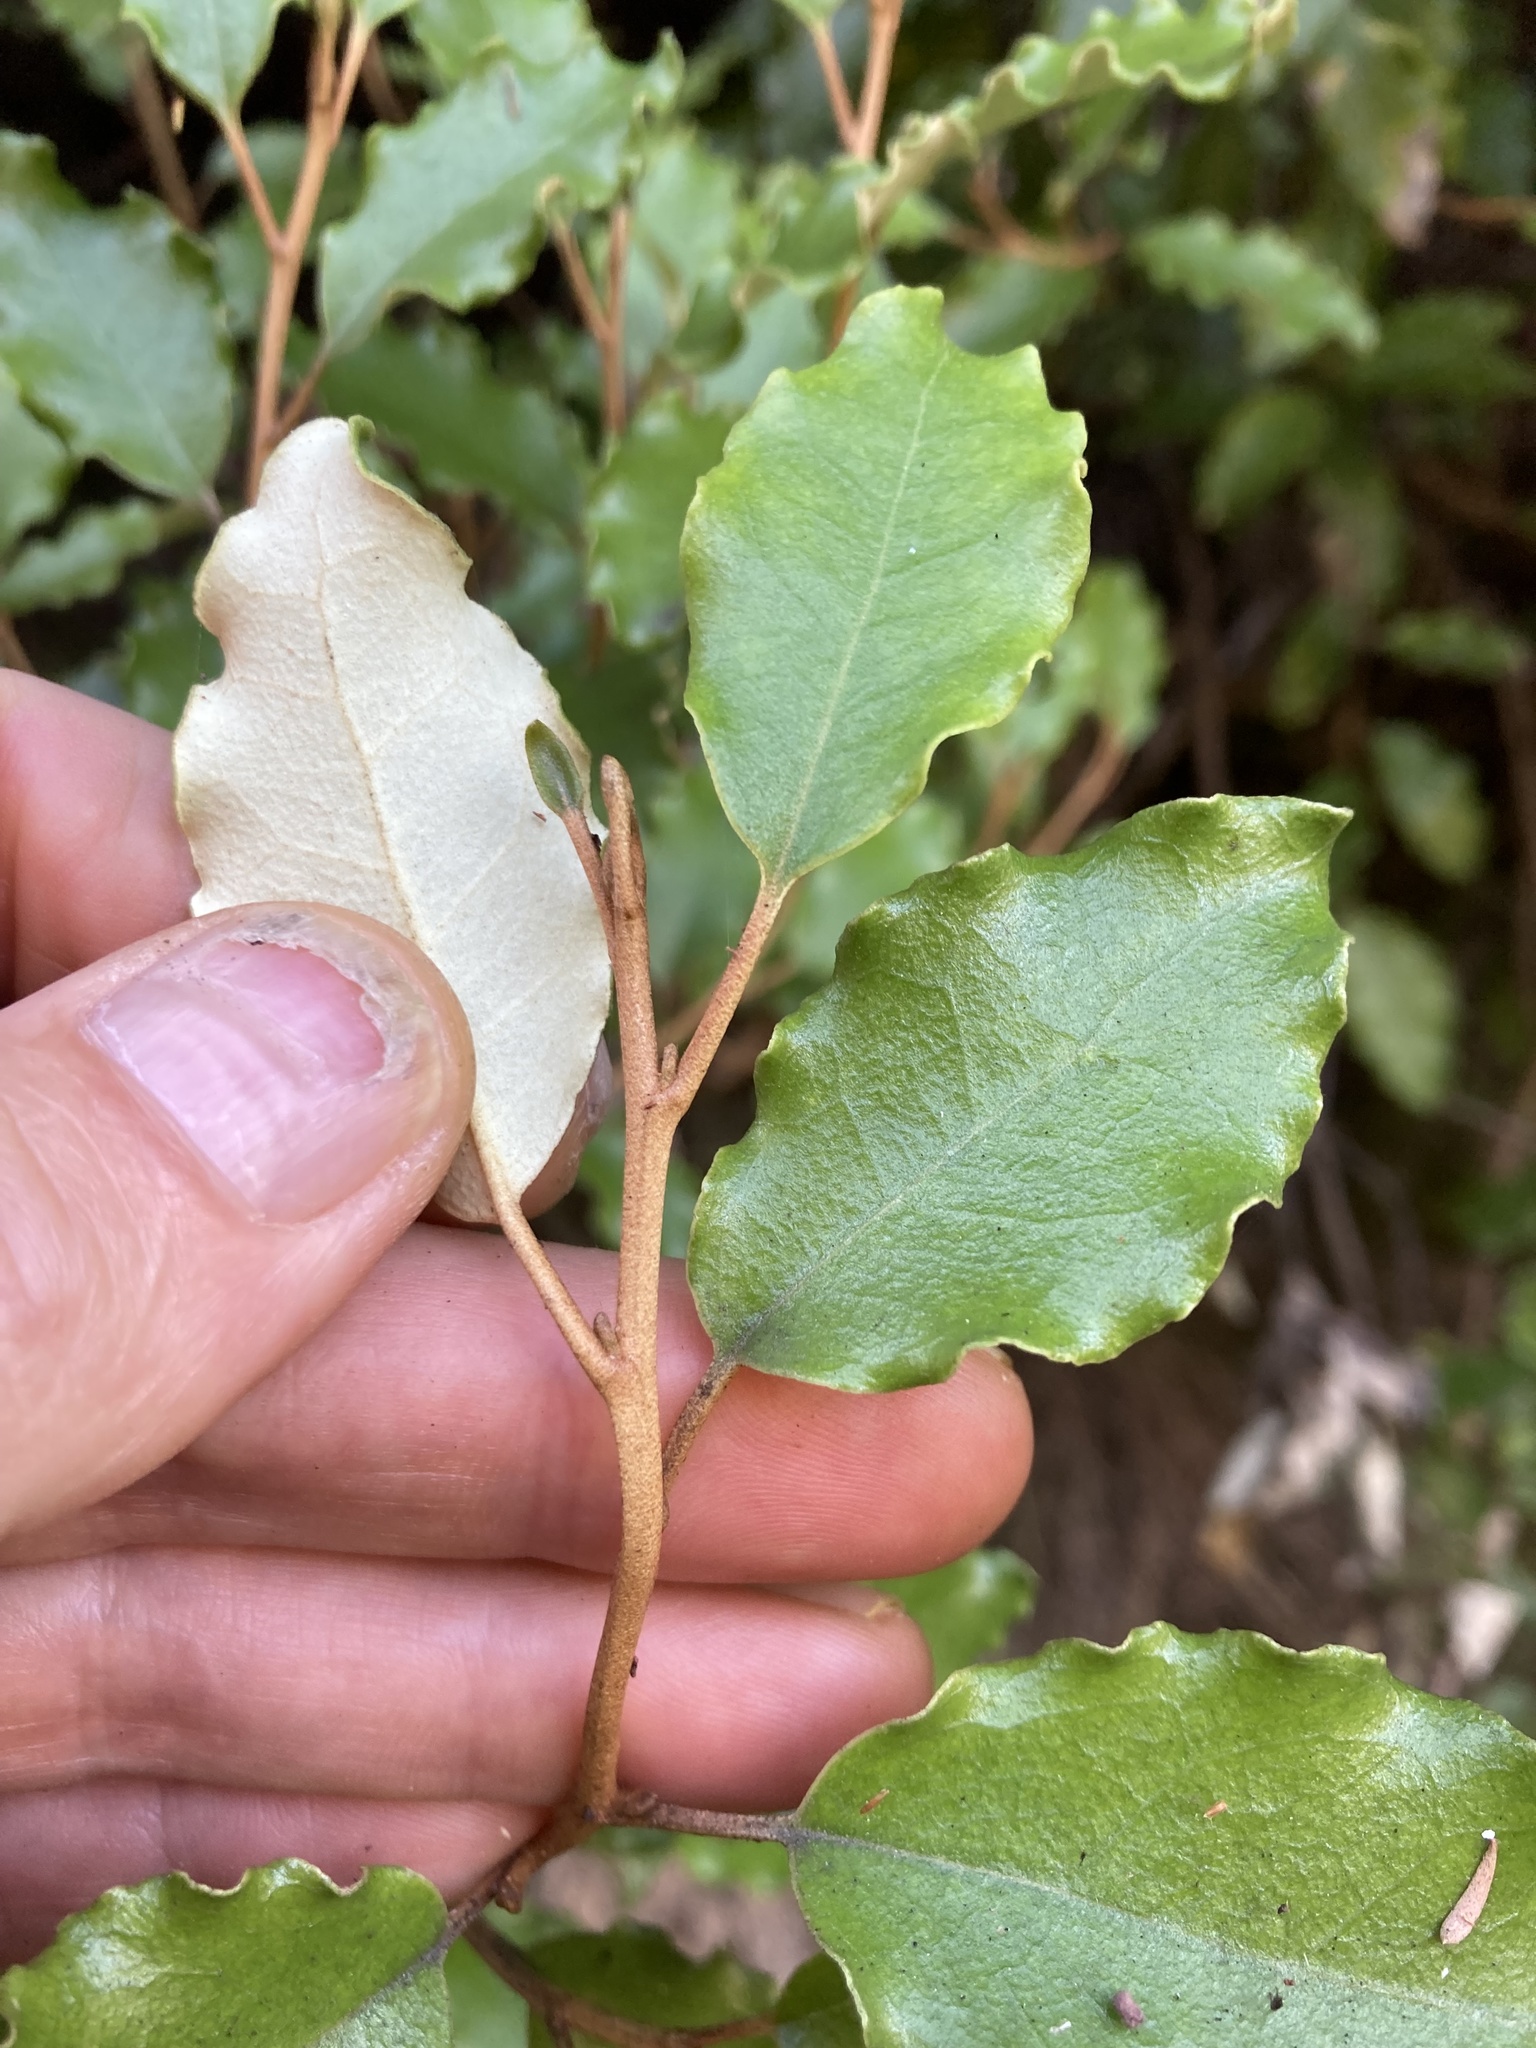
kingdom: Plantae
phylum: Tracheophyta
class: Magnoliopsida
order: Asterales
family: Asteraceae
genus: Olearia
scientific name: Olearia paniculata
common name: Akiraho
